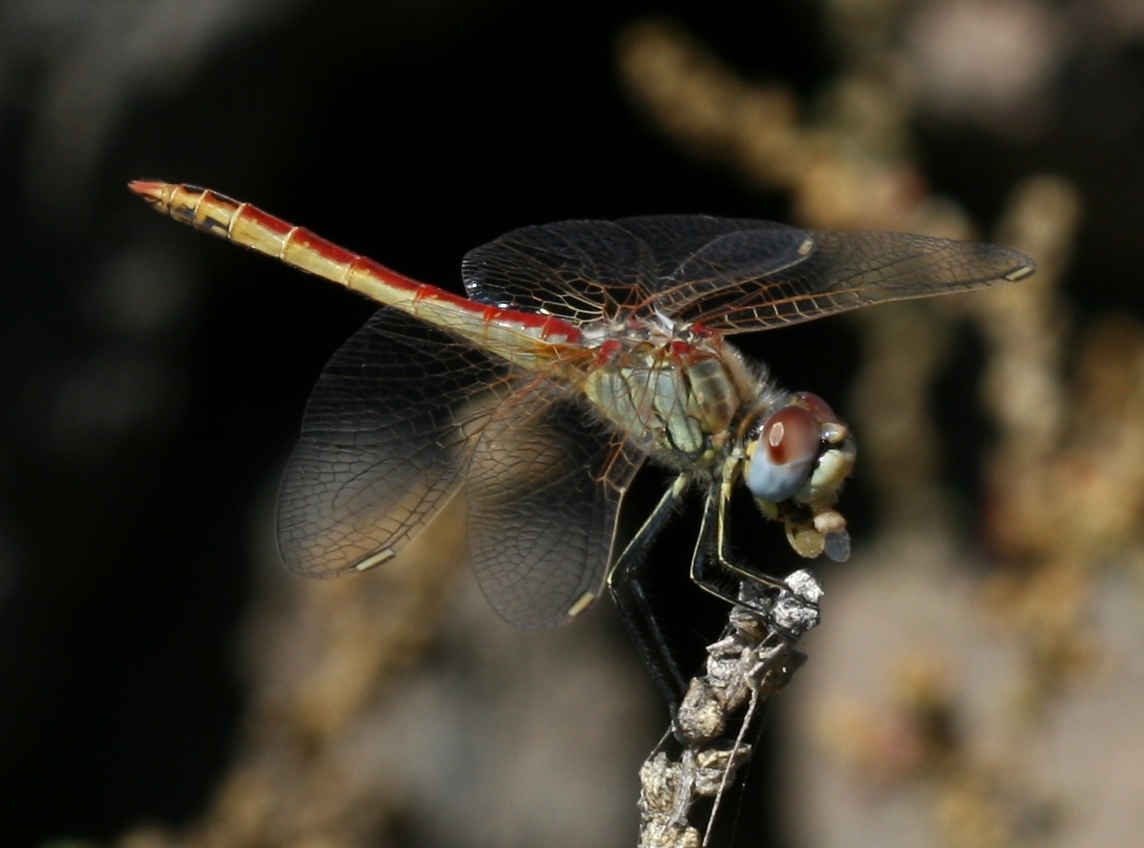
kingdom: Animalia
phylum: Arthropoda
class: Insecta
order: Odonata
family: Libellulidae
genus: Sympetrum
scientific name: Sympetrum fonscolombii
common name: Red-veined darter
